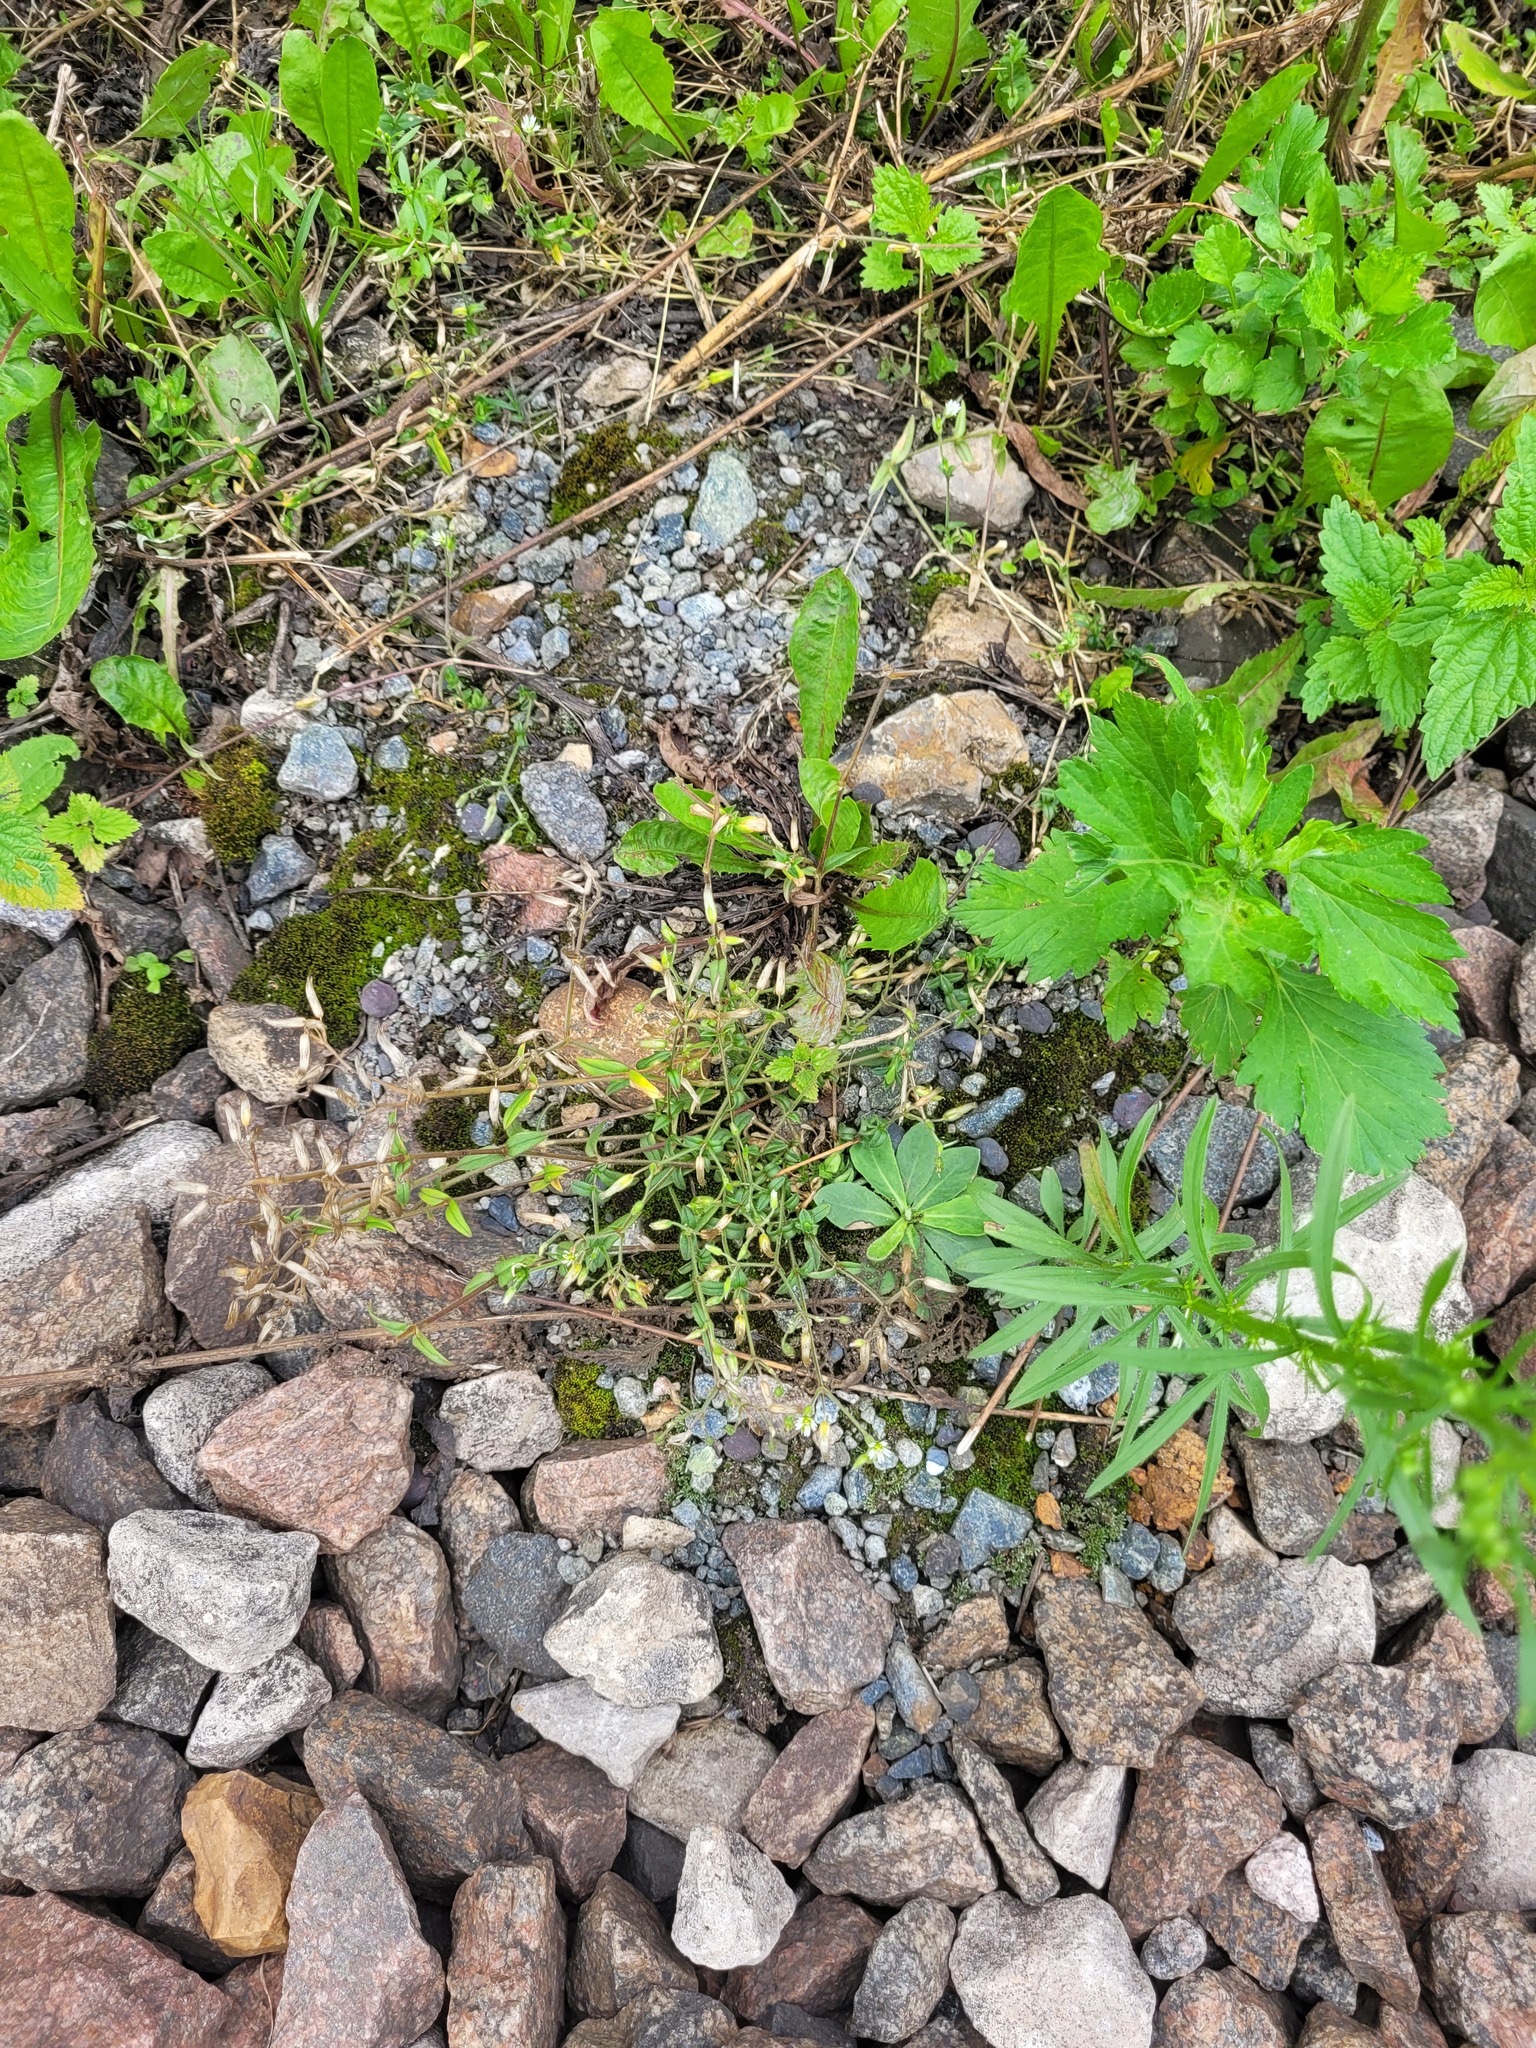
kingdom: Plantae
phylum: Tracheophyta
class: Magnoliopsida
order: Caryophyllales
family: Caryophyllaceae
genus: Cerastium
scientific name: Cerastium holosteoides
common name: Big chickweed
